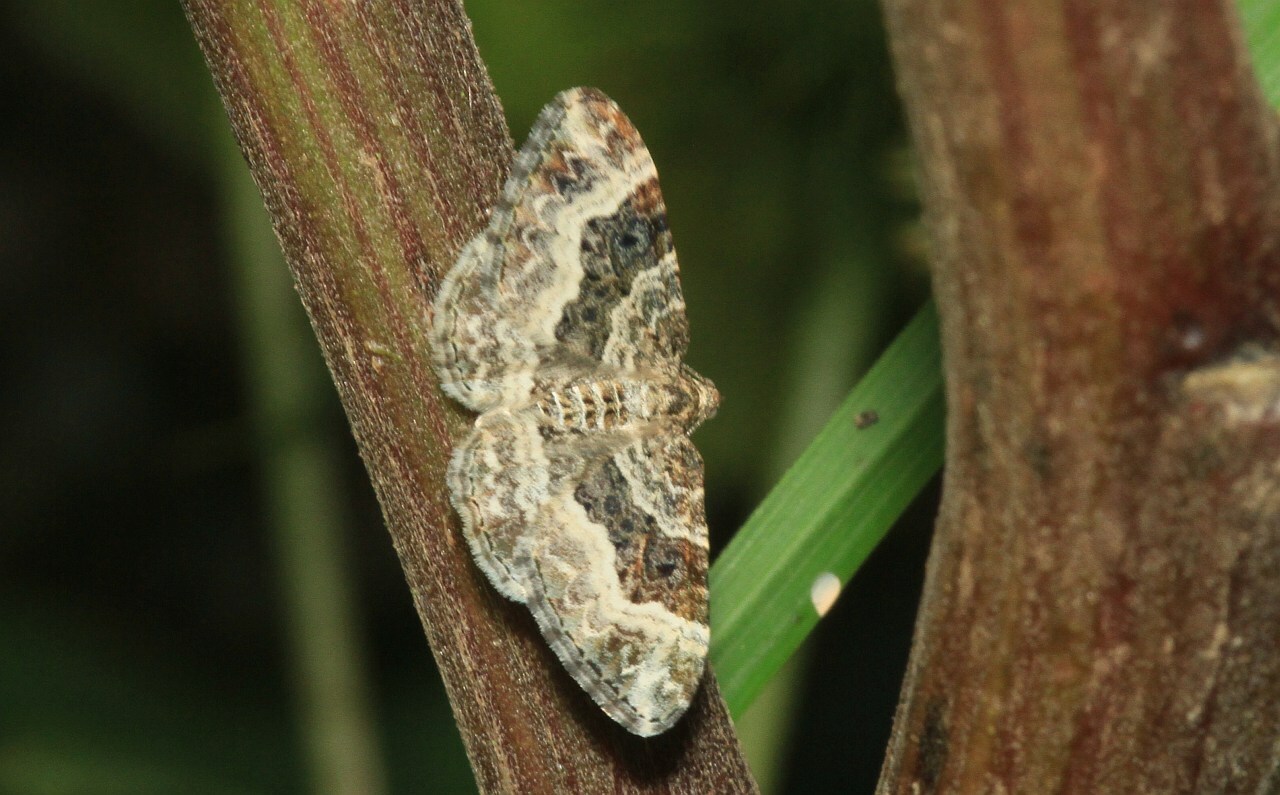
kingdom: Animalia
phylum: Arthropoda
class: Insecta
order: Lepidoptera
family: Geometridae
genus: Epirrhoe
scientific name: Epirrhoe alternata
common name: Common carpet
